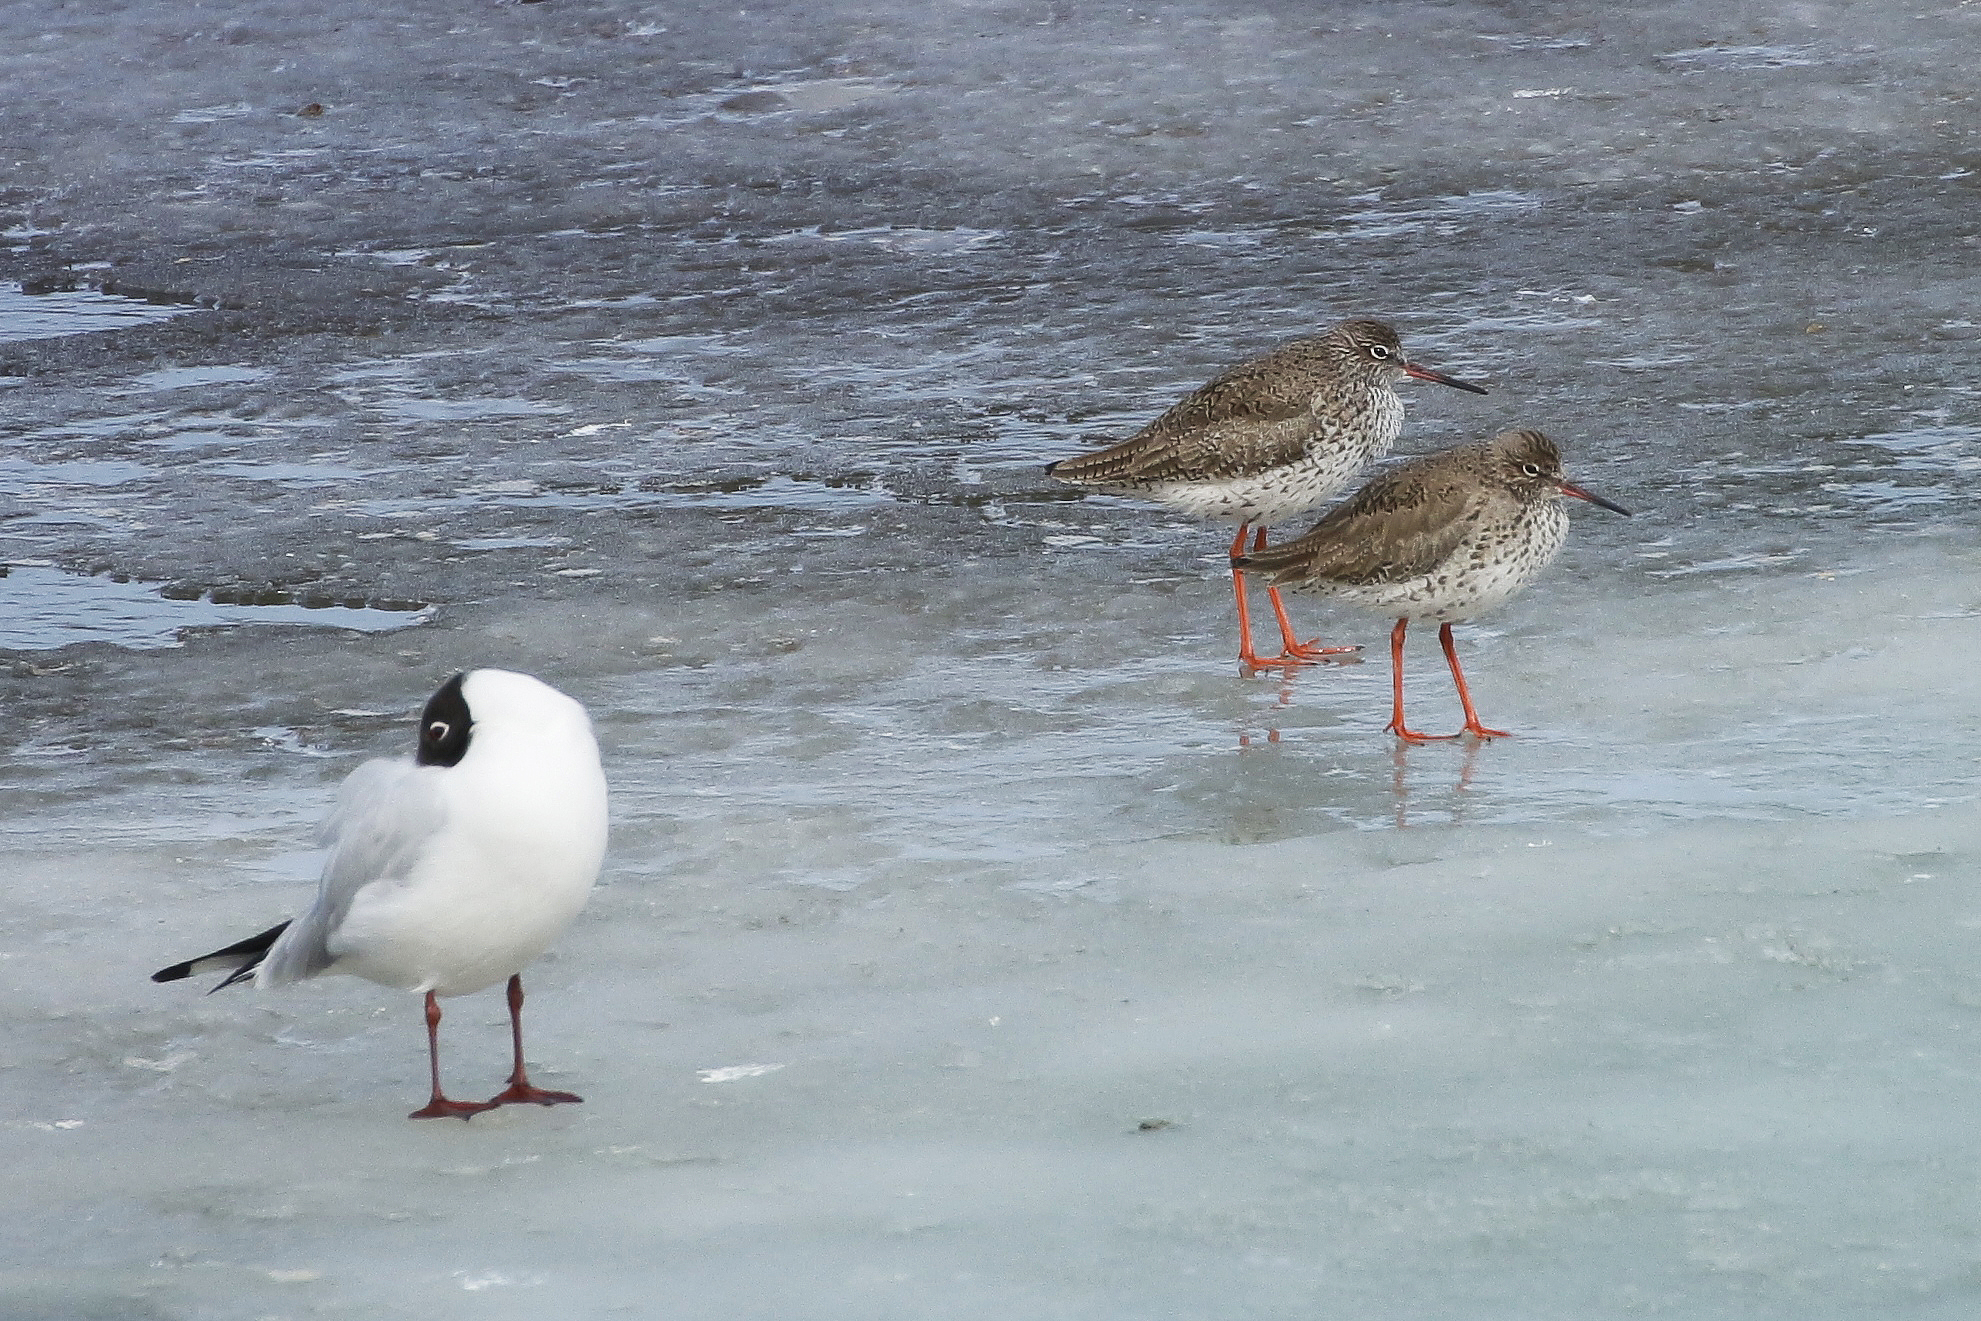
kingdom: Animalia
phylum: Chordata
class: Aves
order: Charadriiformes
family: Scolopacidae
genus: Tringa
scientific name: Tringa totanus
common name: Common redshank
